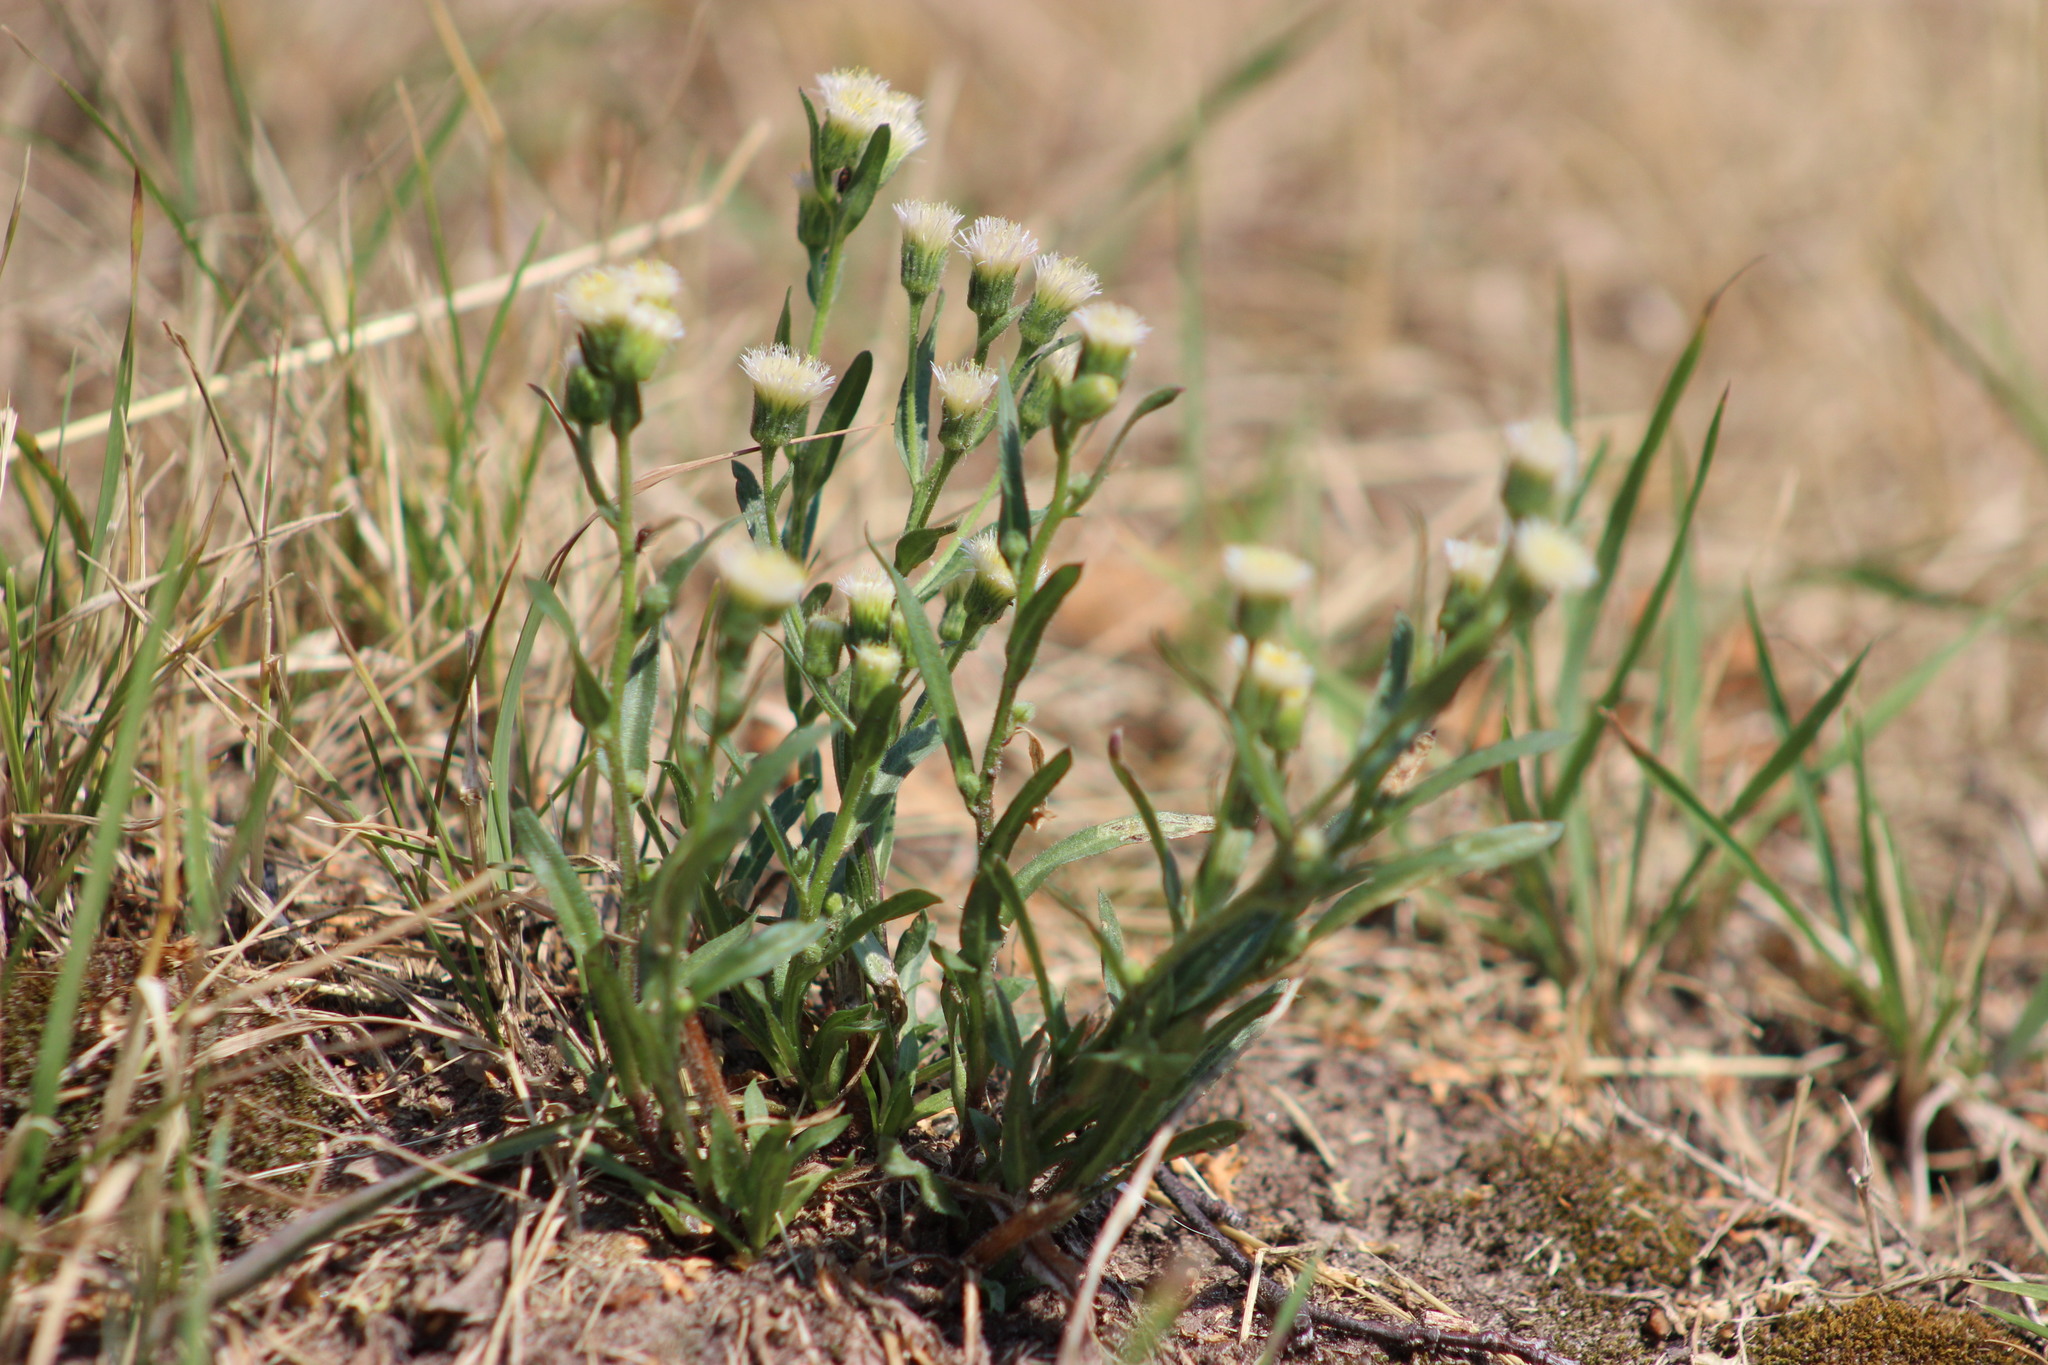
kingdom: Plantae
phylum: Tracheophyta
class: Magnoliopsida
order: Asterales
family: Asteraceae
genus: Erigeron
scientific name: Erigeron acris
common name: Blue fleabane
